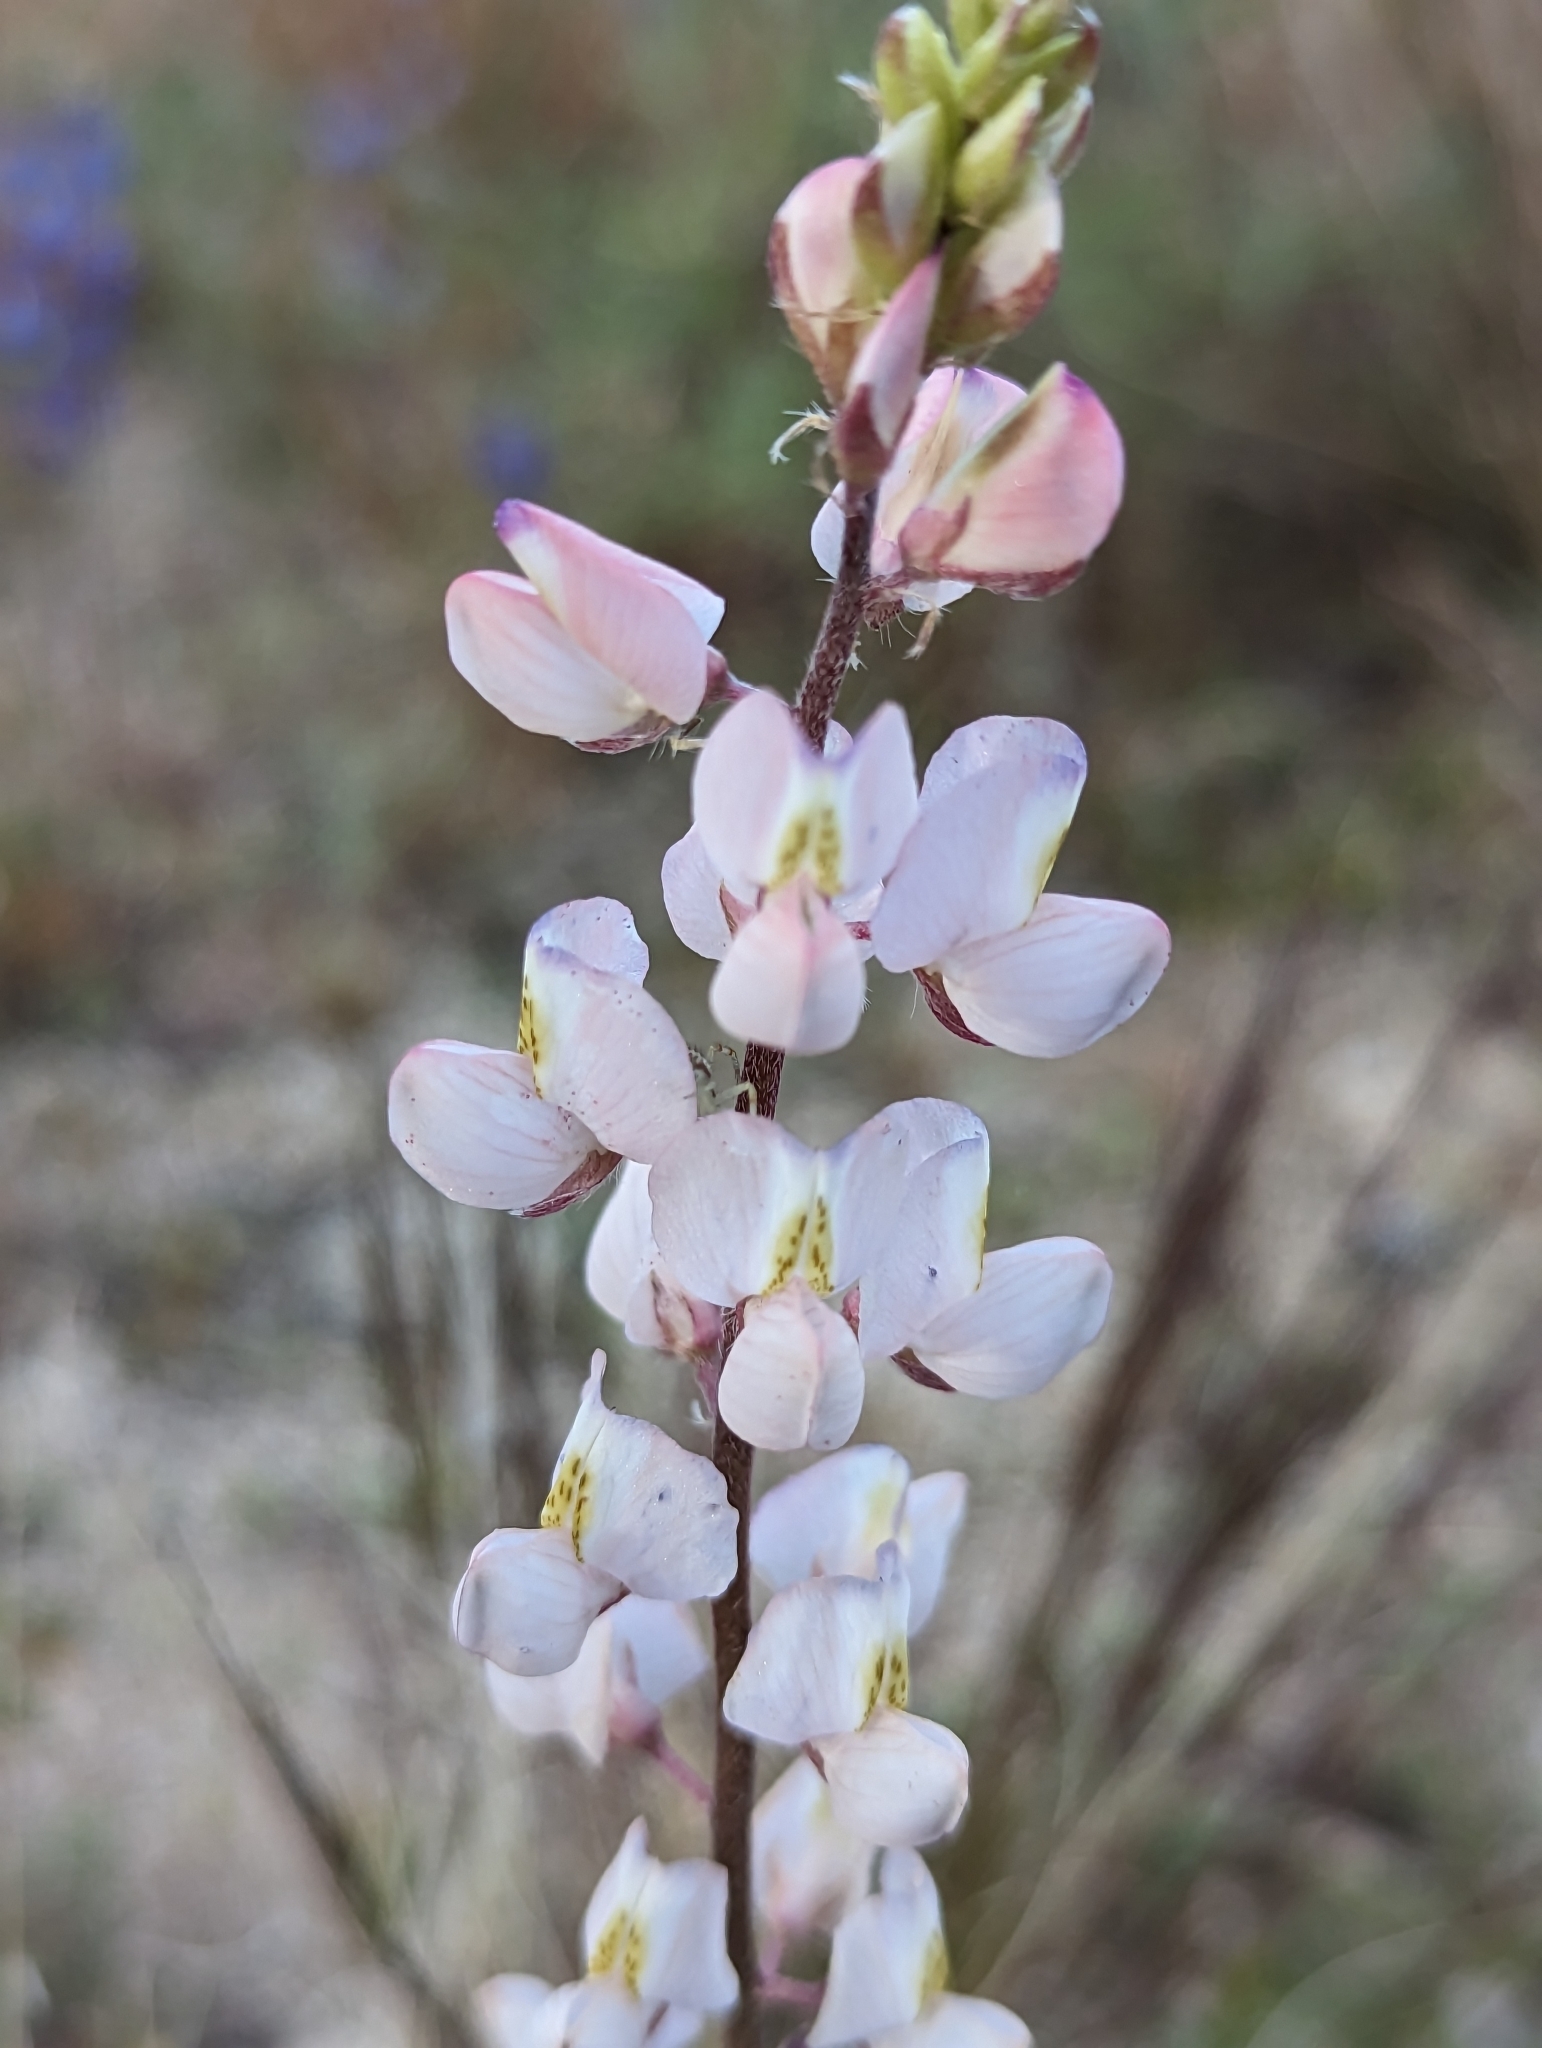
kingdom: Plantae
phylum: Tracheophyta
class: Magnoliopsida
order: Fabales
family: Fabaceae
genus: Lupinus
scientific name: Lupinus sparsiflorus
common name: Coulter's lupine
